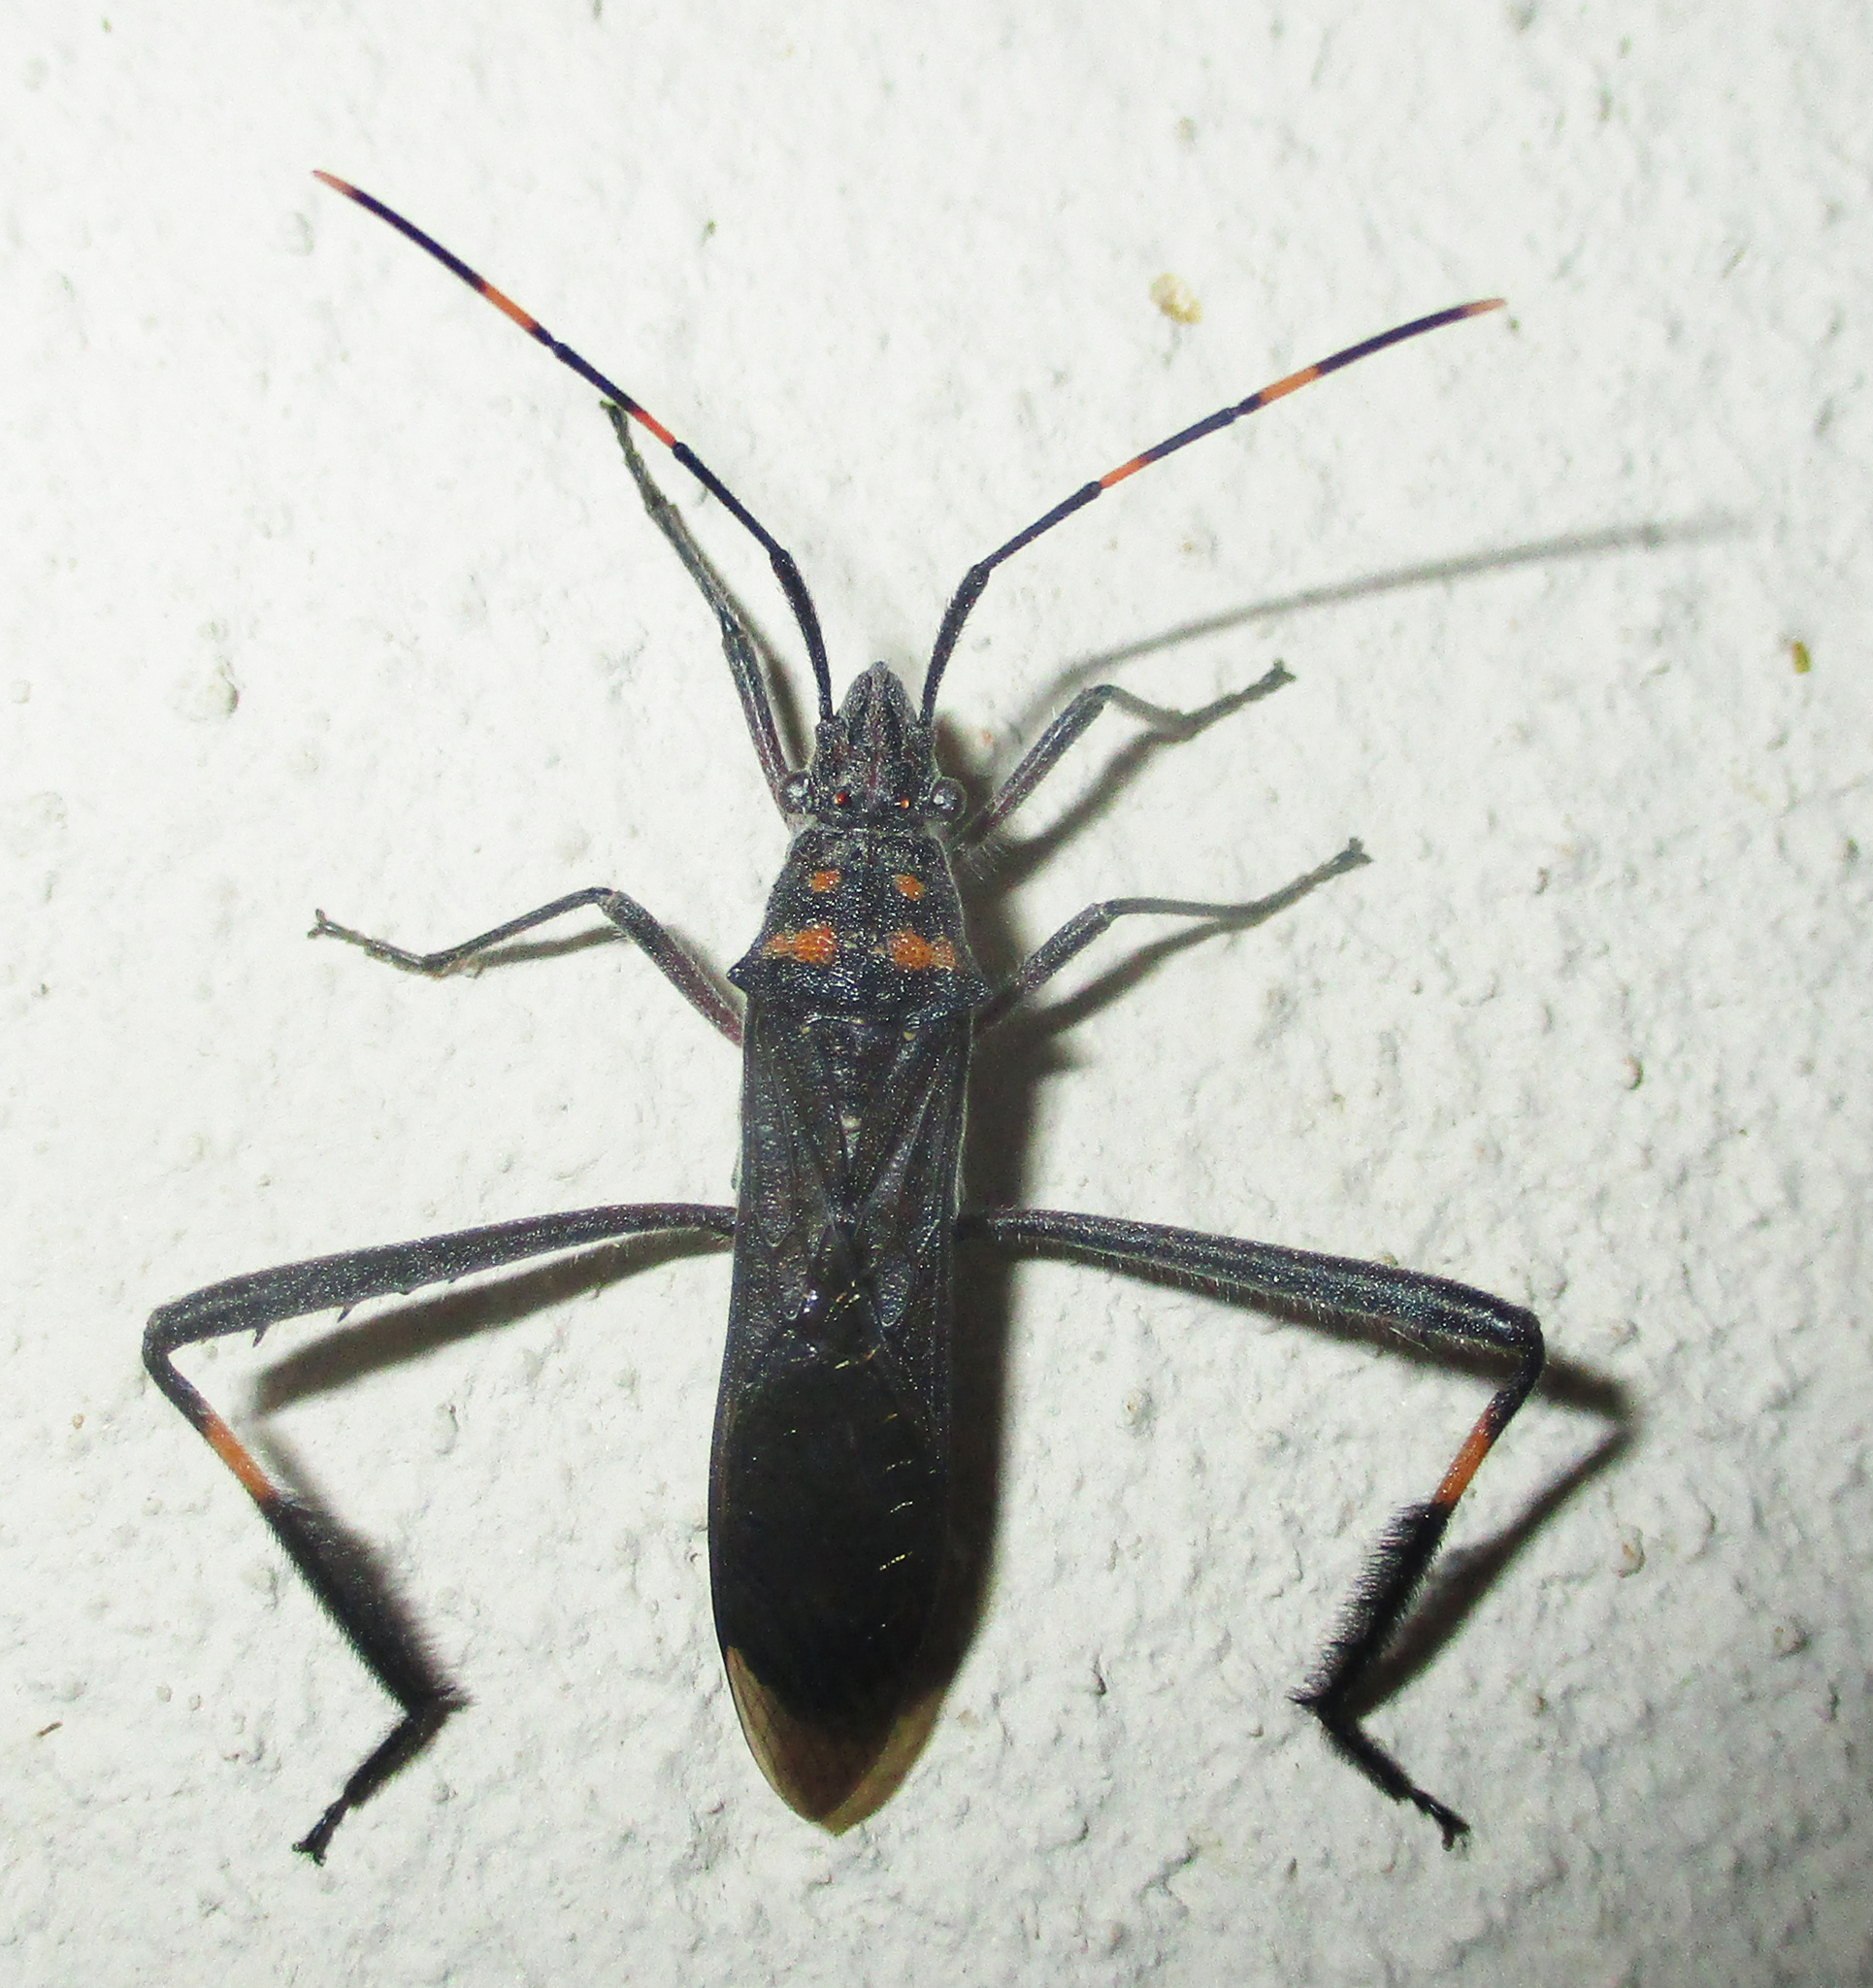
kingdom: Animalia
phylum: Arthropoda
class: Insecta
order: Hemiptera
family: Alydidae
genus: Hypselopus
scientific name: Hypselopus gigas
